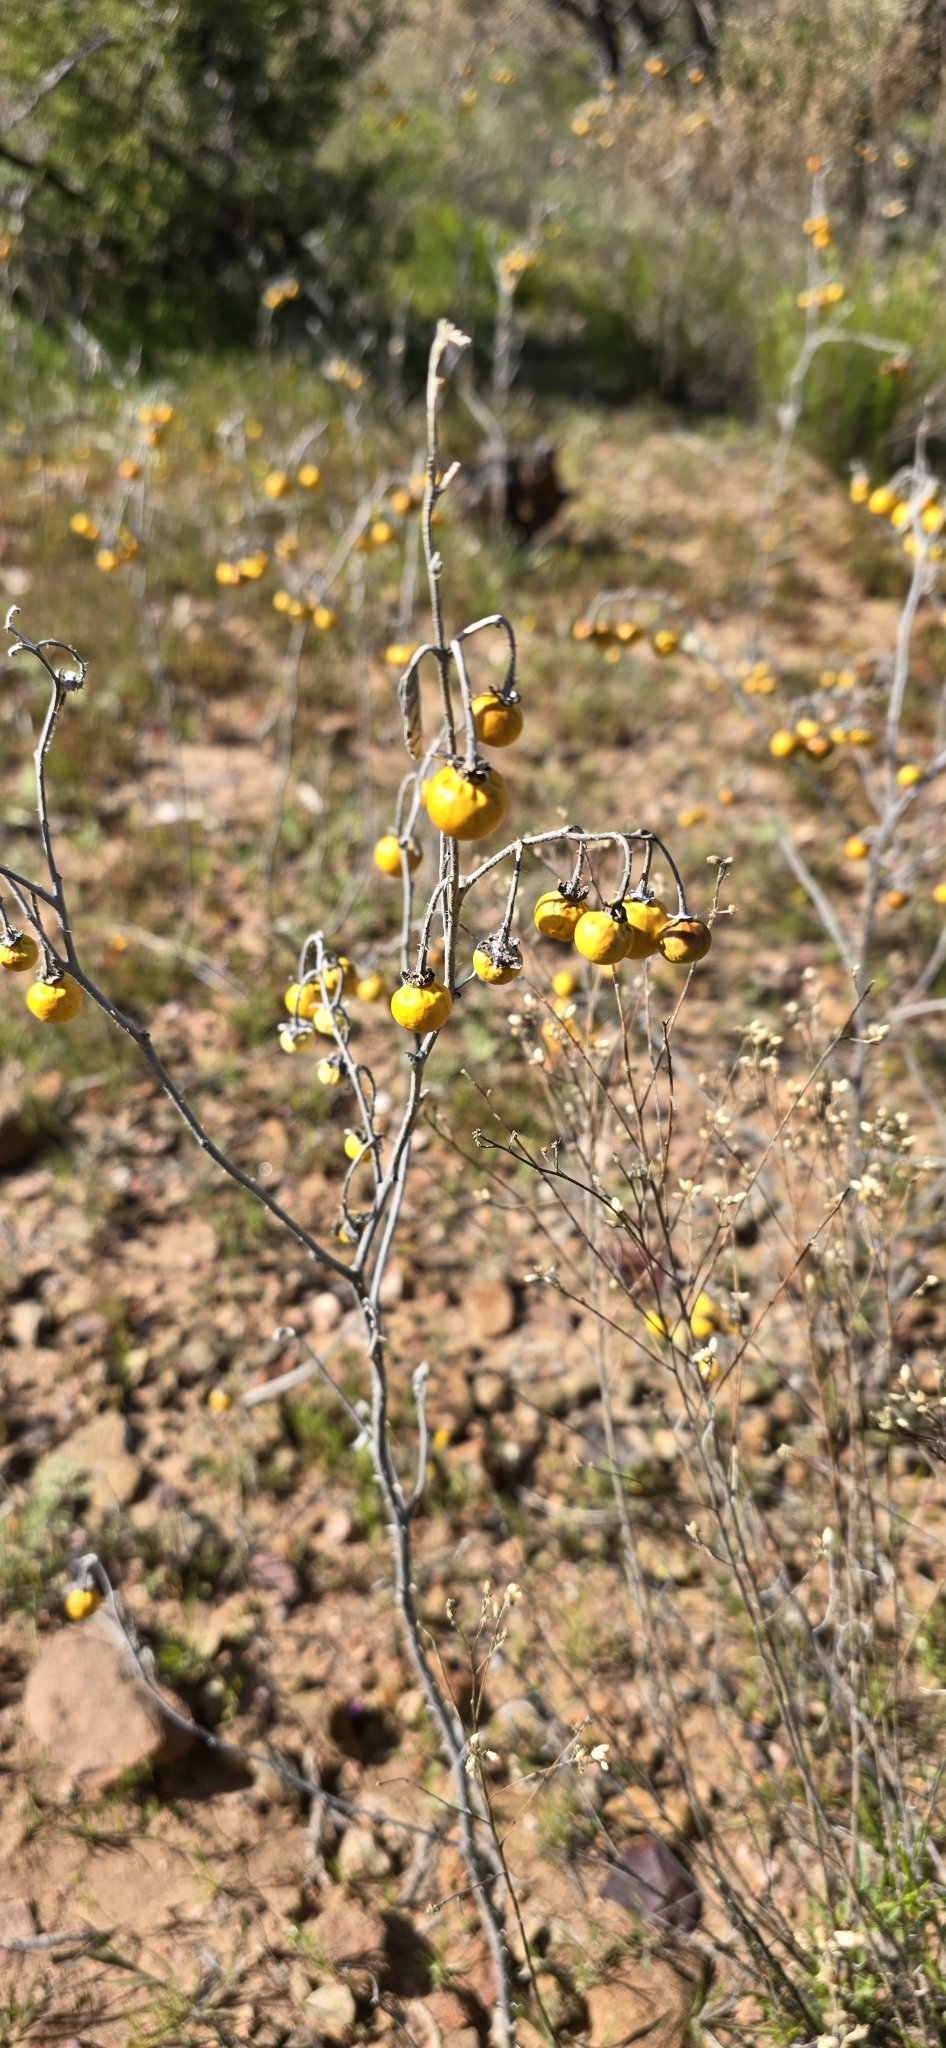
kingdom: Plantae
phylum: Tracheophyta
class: Magnoliopsida
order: Solanales
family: Solanaceae
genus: Solanum
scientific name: Solanum elaeagnifolium
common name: Silverleaf nightshade
